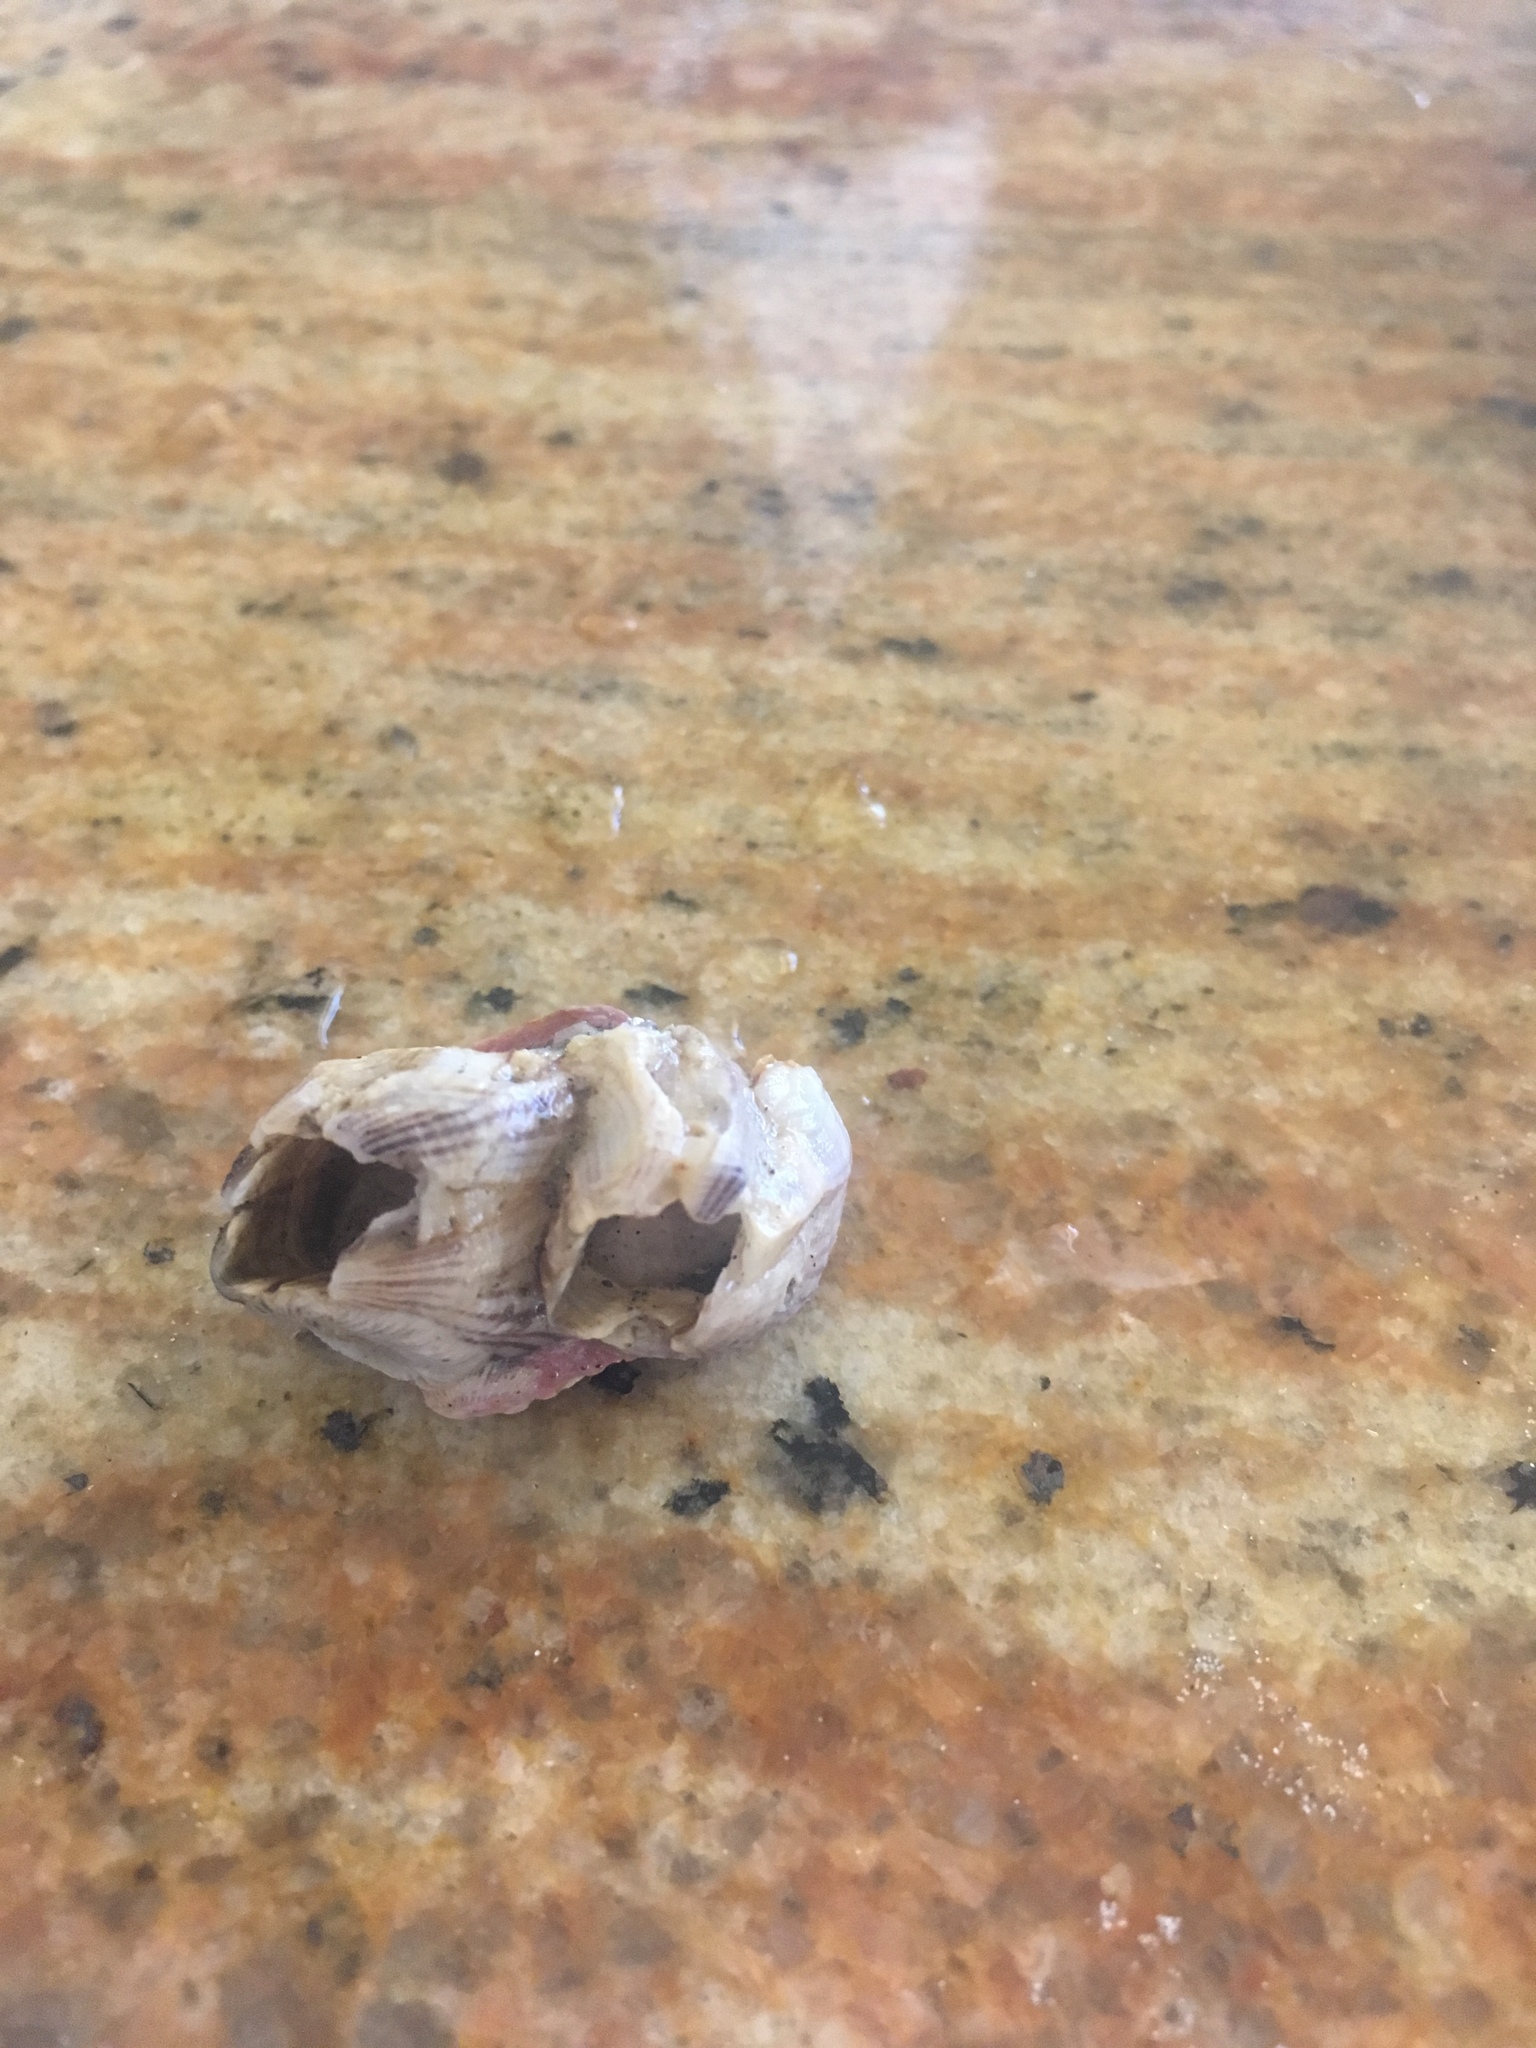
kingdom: Animalia
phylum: Arthropoda
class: Maxillopoda
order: Sessilia
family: Balanidae
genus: Amphibalanus
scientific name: Amphibalanus reticulatus
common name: Reticulated barnacle
